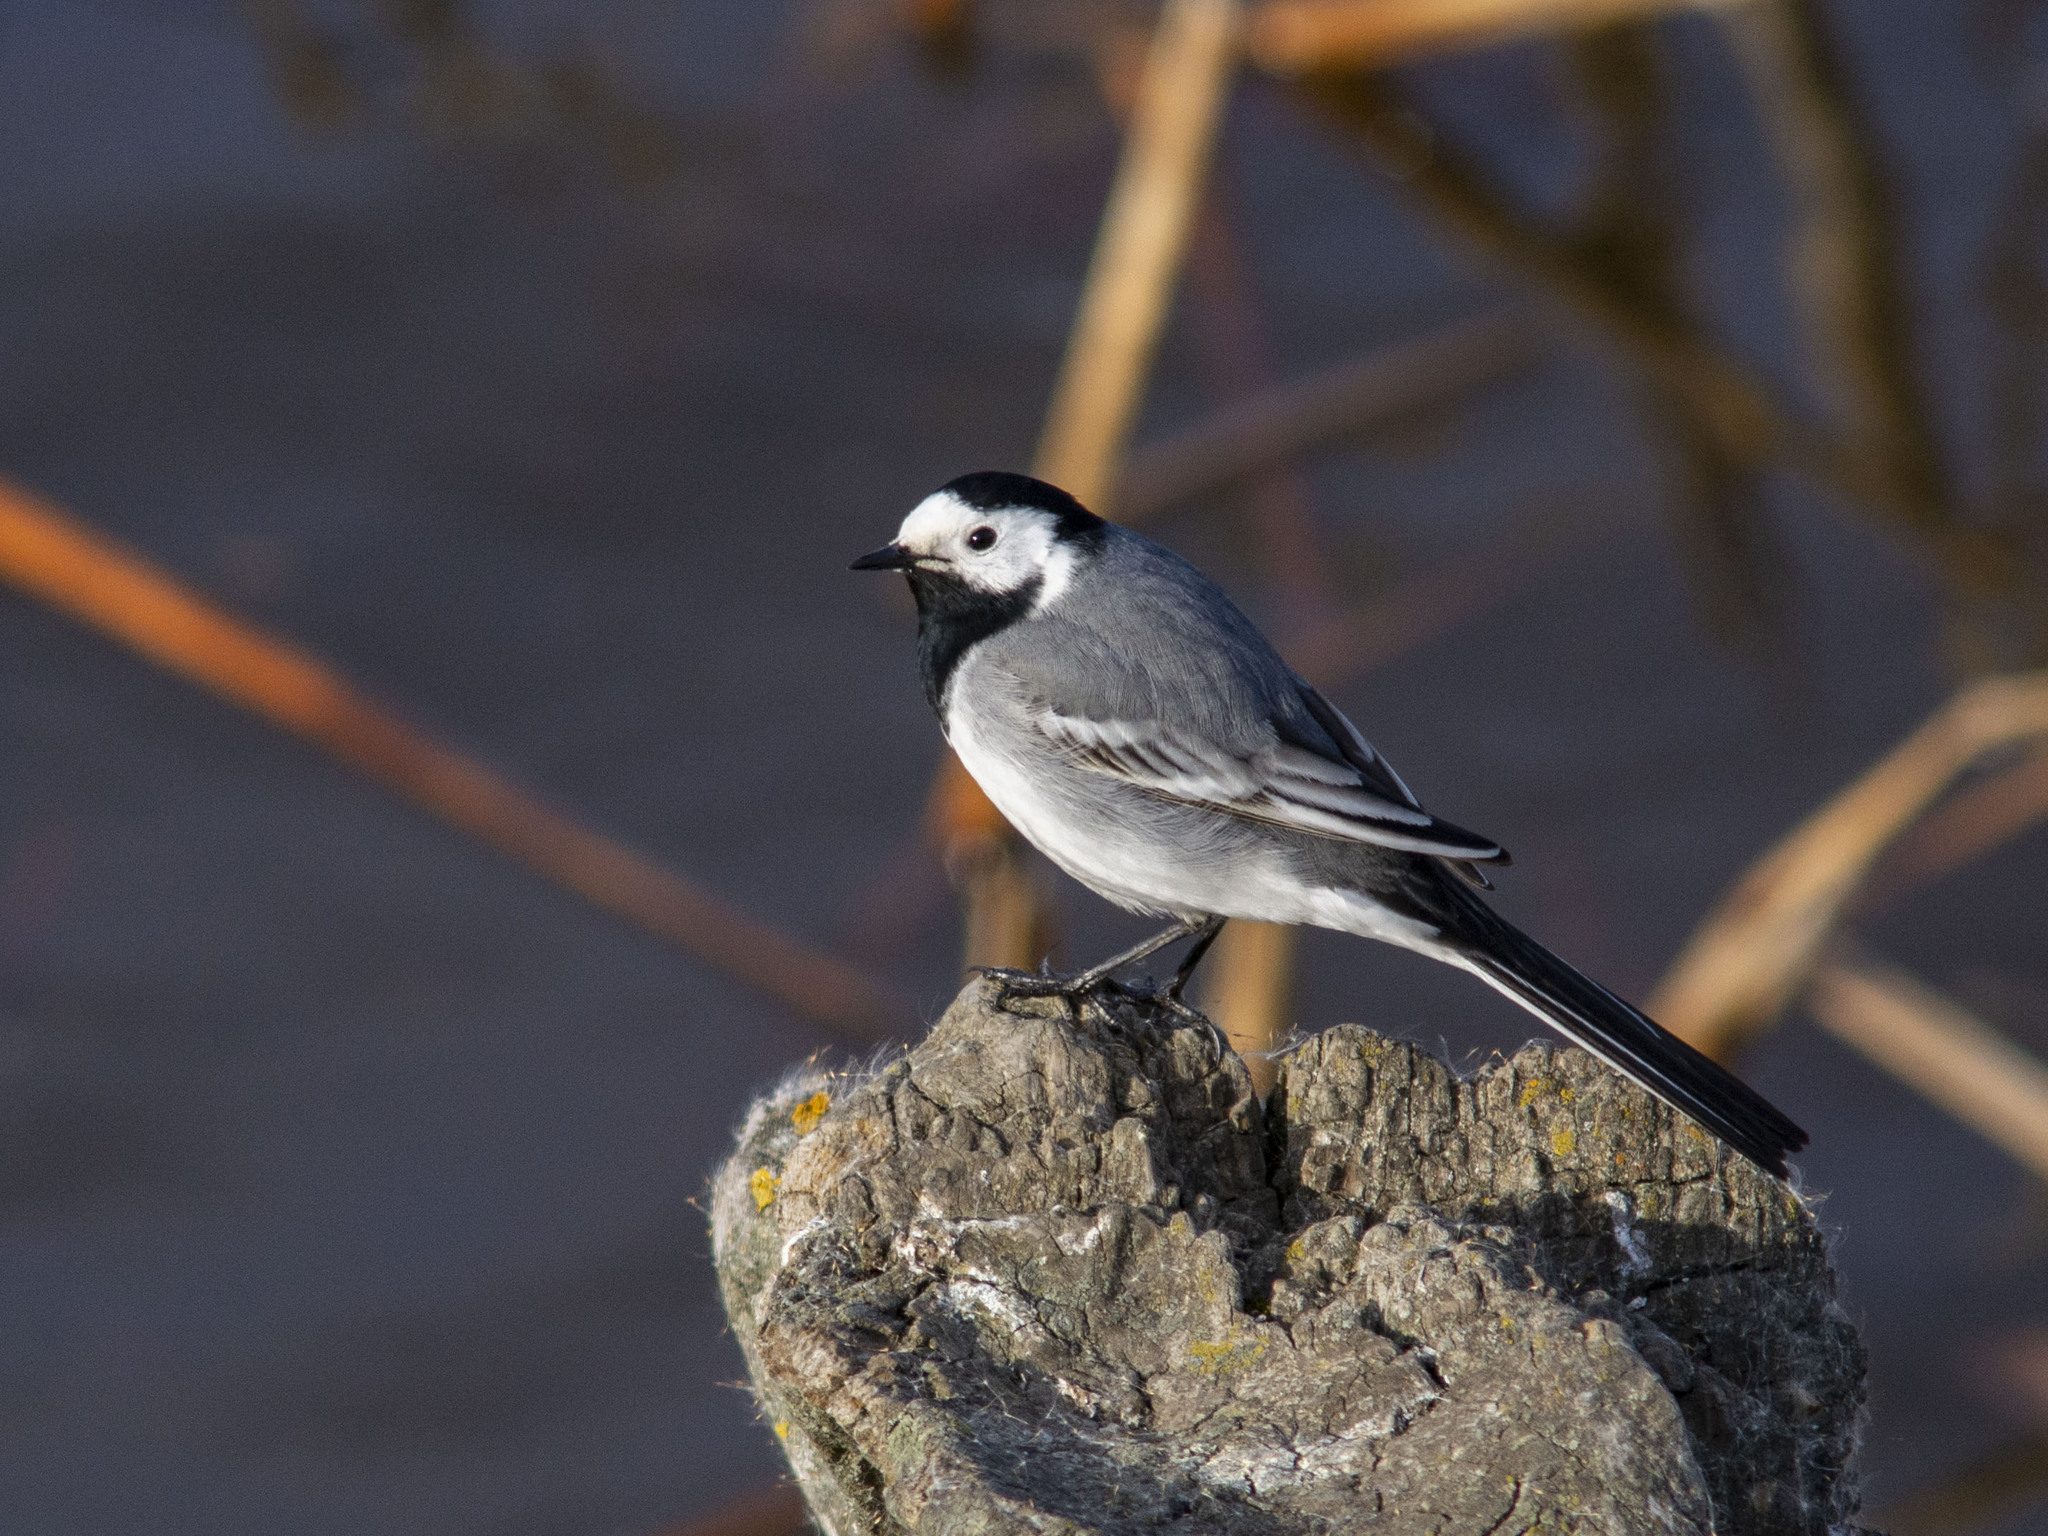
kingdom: Animalia
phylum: Chordata
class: Aves
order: Passeriformes
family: Motacillidae
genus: Motacilla
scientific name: Motacilla alba
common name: White wagtail
